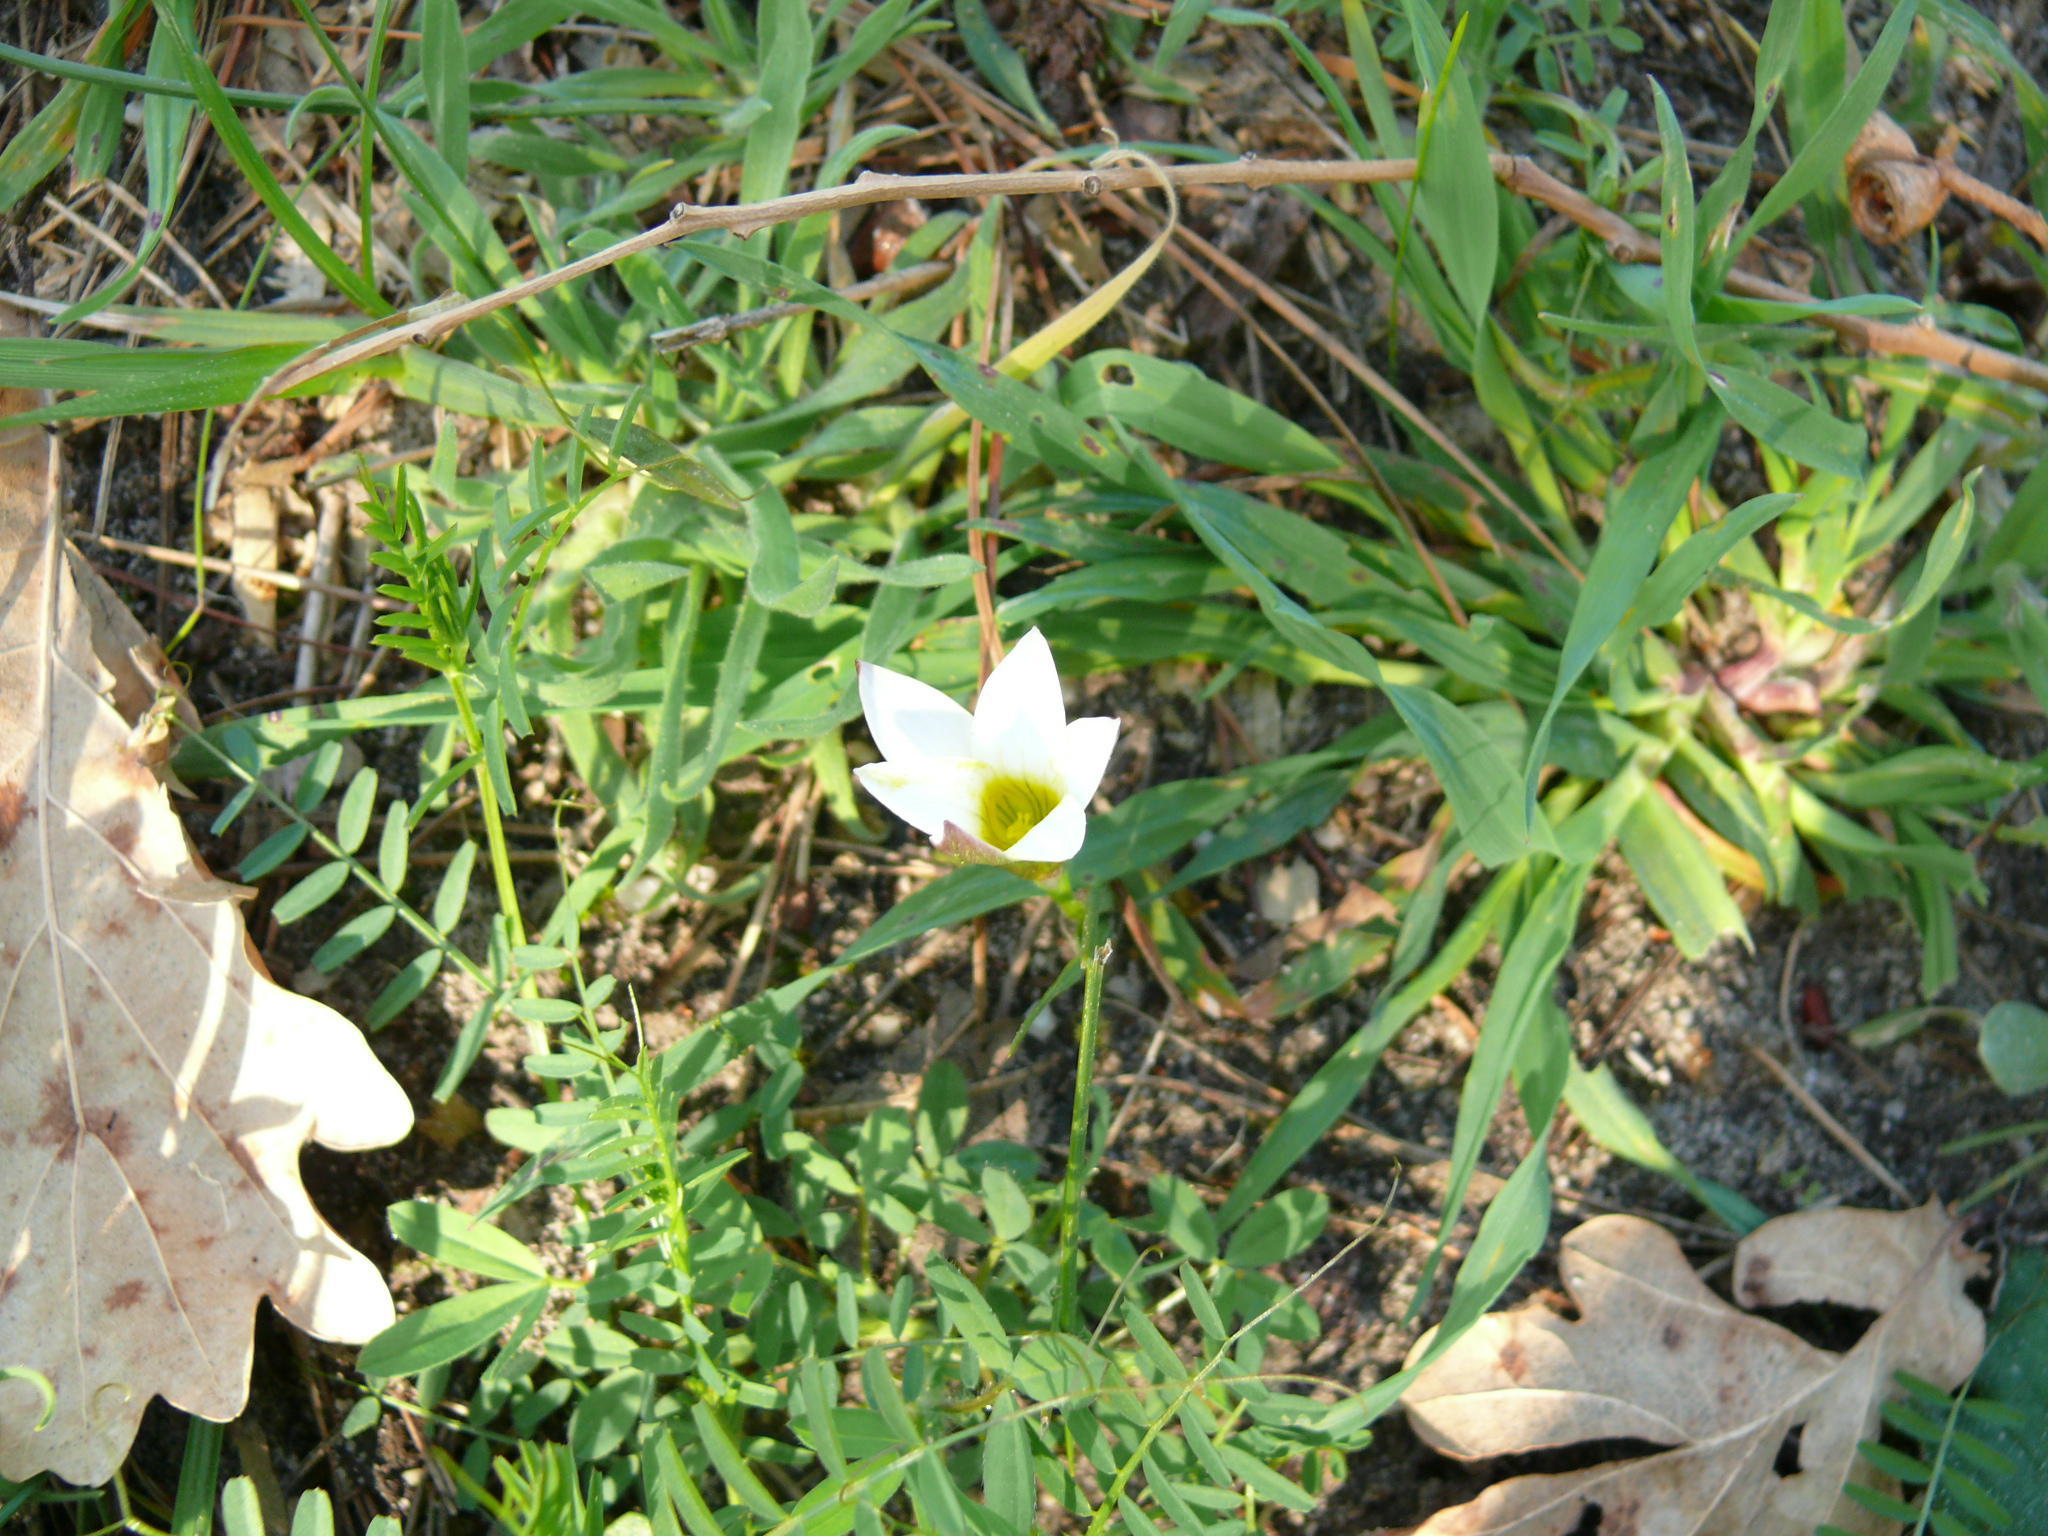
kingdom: Plantae
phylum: Tracheophyta
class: Liliopsida
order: Asparagales
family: Iridaceae
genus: Romulea
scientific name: Romulea flava
